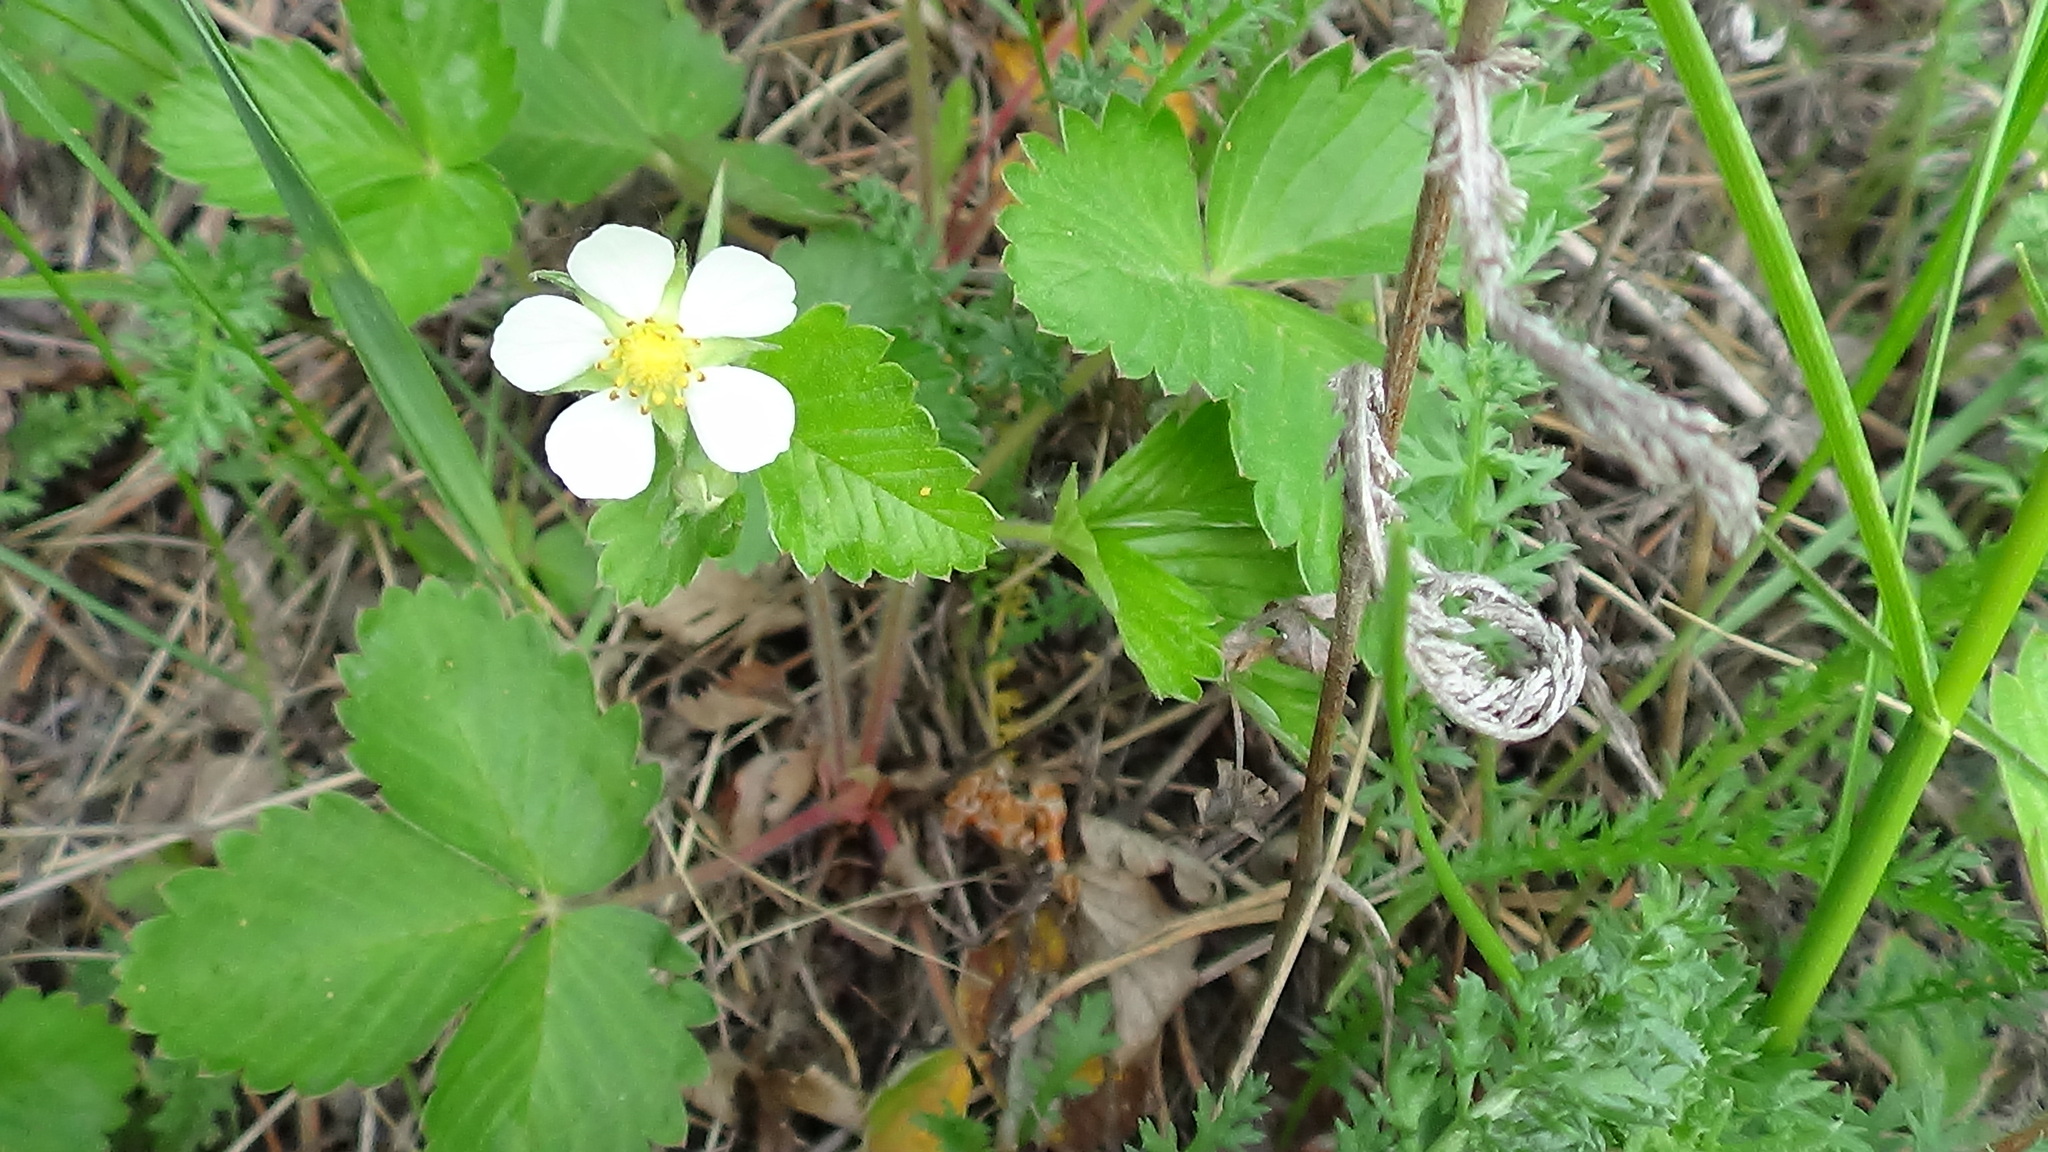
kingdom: Plantae
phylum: Tracheophyta
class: Magnoliopsida
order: Rosales
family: Rosaceae
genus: Fragaria
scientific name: Fragaria vesca
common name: Wild strawberry
